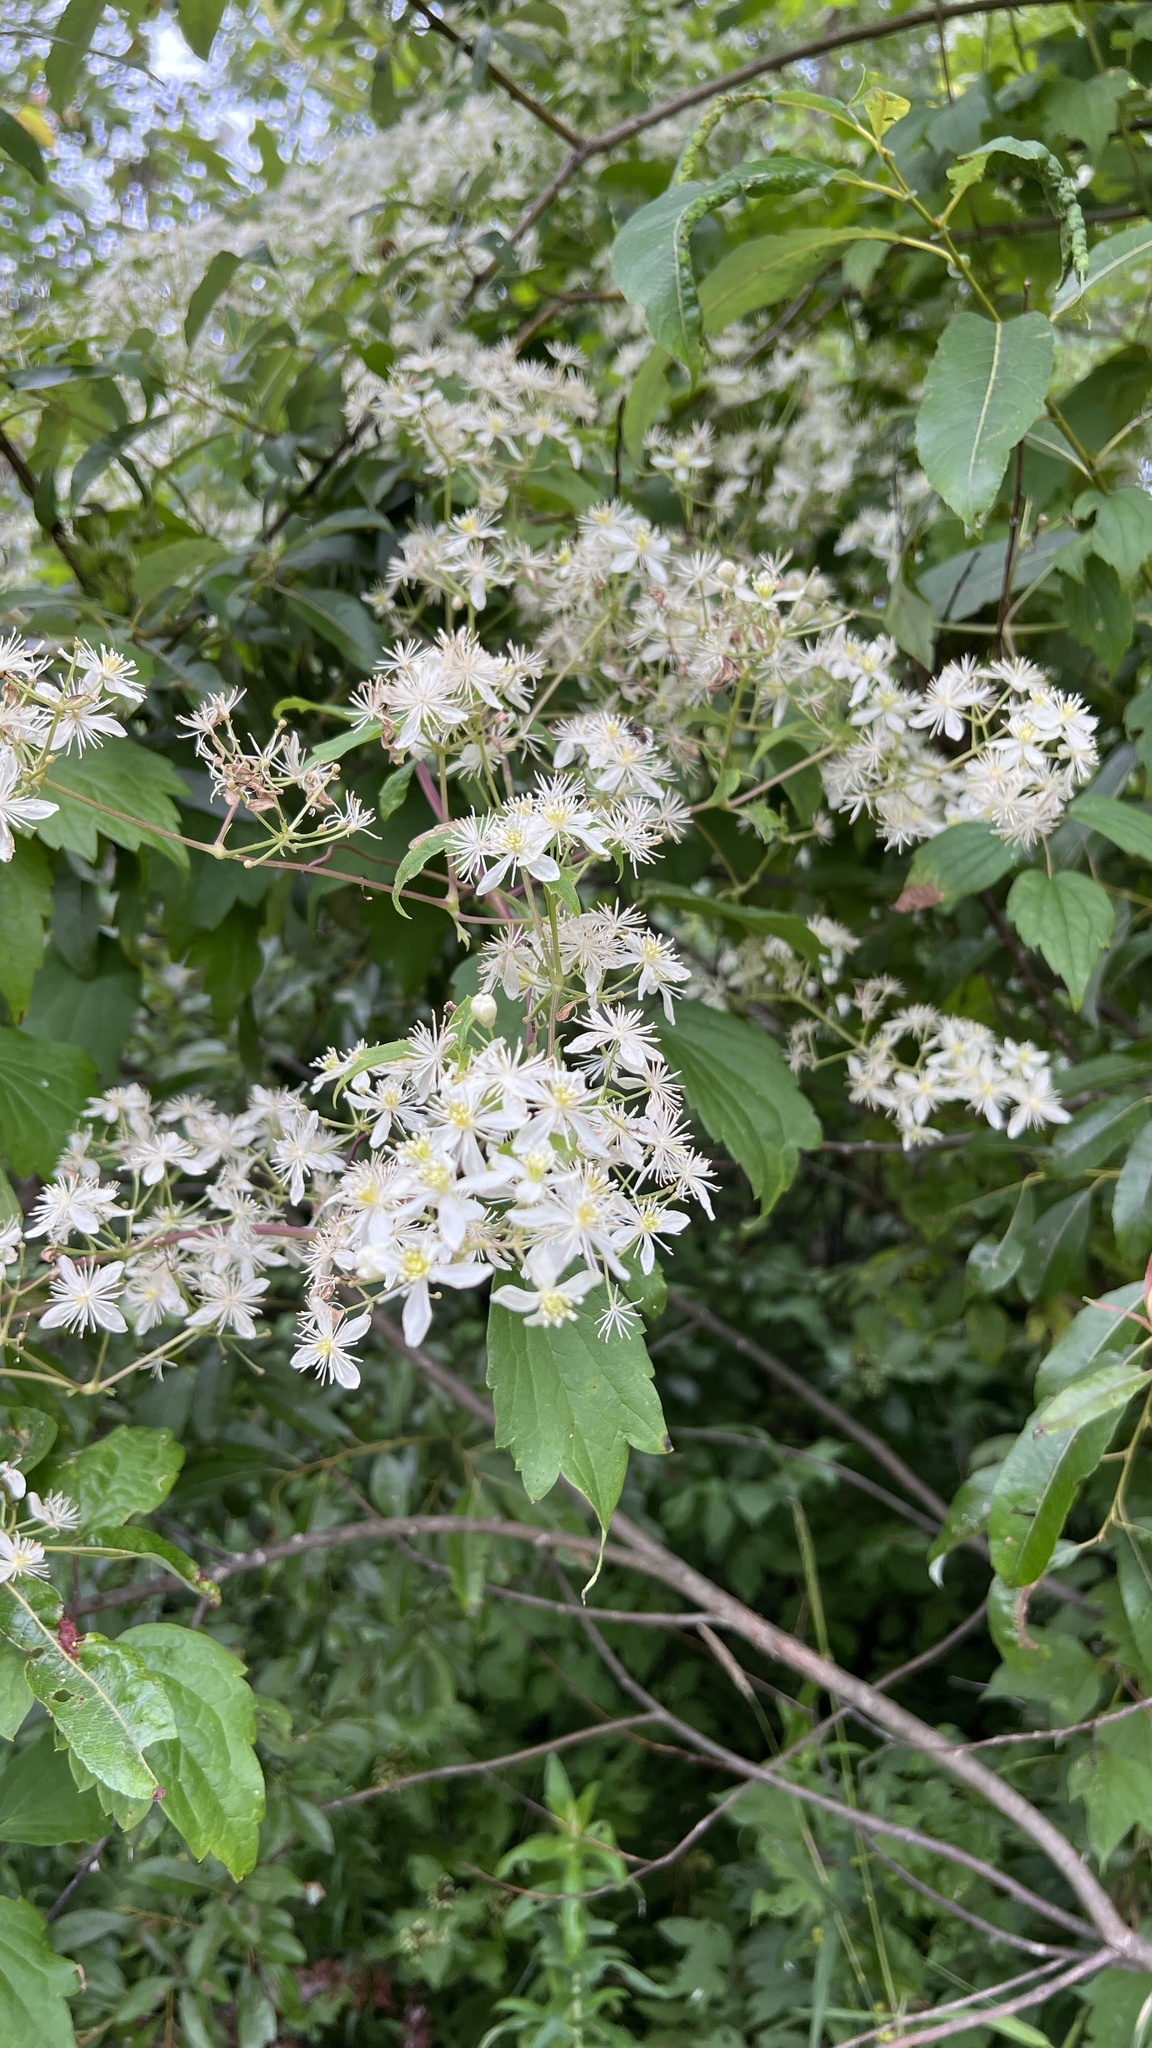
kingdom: Plantae
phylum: Tracheophyta
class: Magnoliopsida
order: Ranunculales
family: Ranunculaceae
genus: Clematis
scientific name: Clematis virginiana
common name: Virgin's-bower
